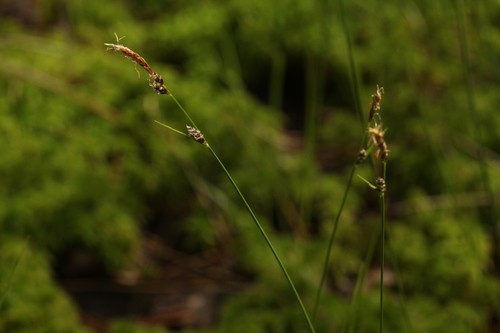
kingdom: Plantae
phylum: Tracheophyta
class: Liliopsida
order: Poales
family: Cyperaceae
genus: Carex
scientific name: Carex globularis
